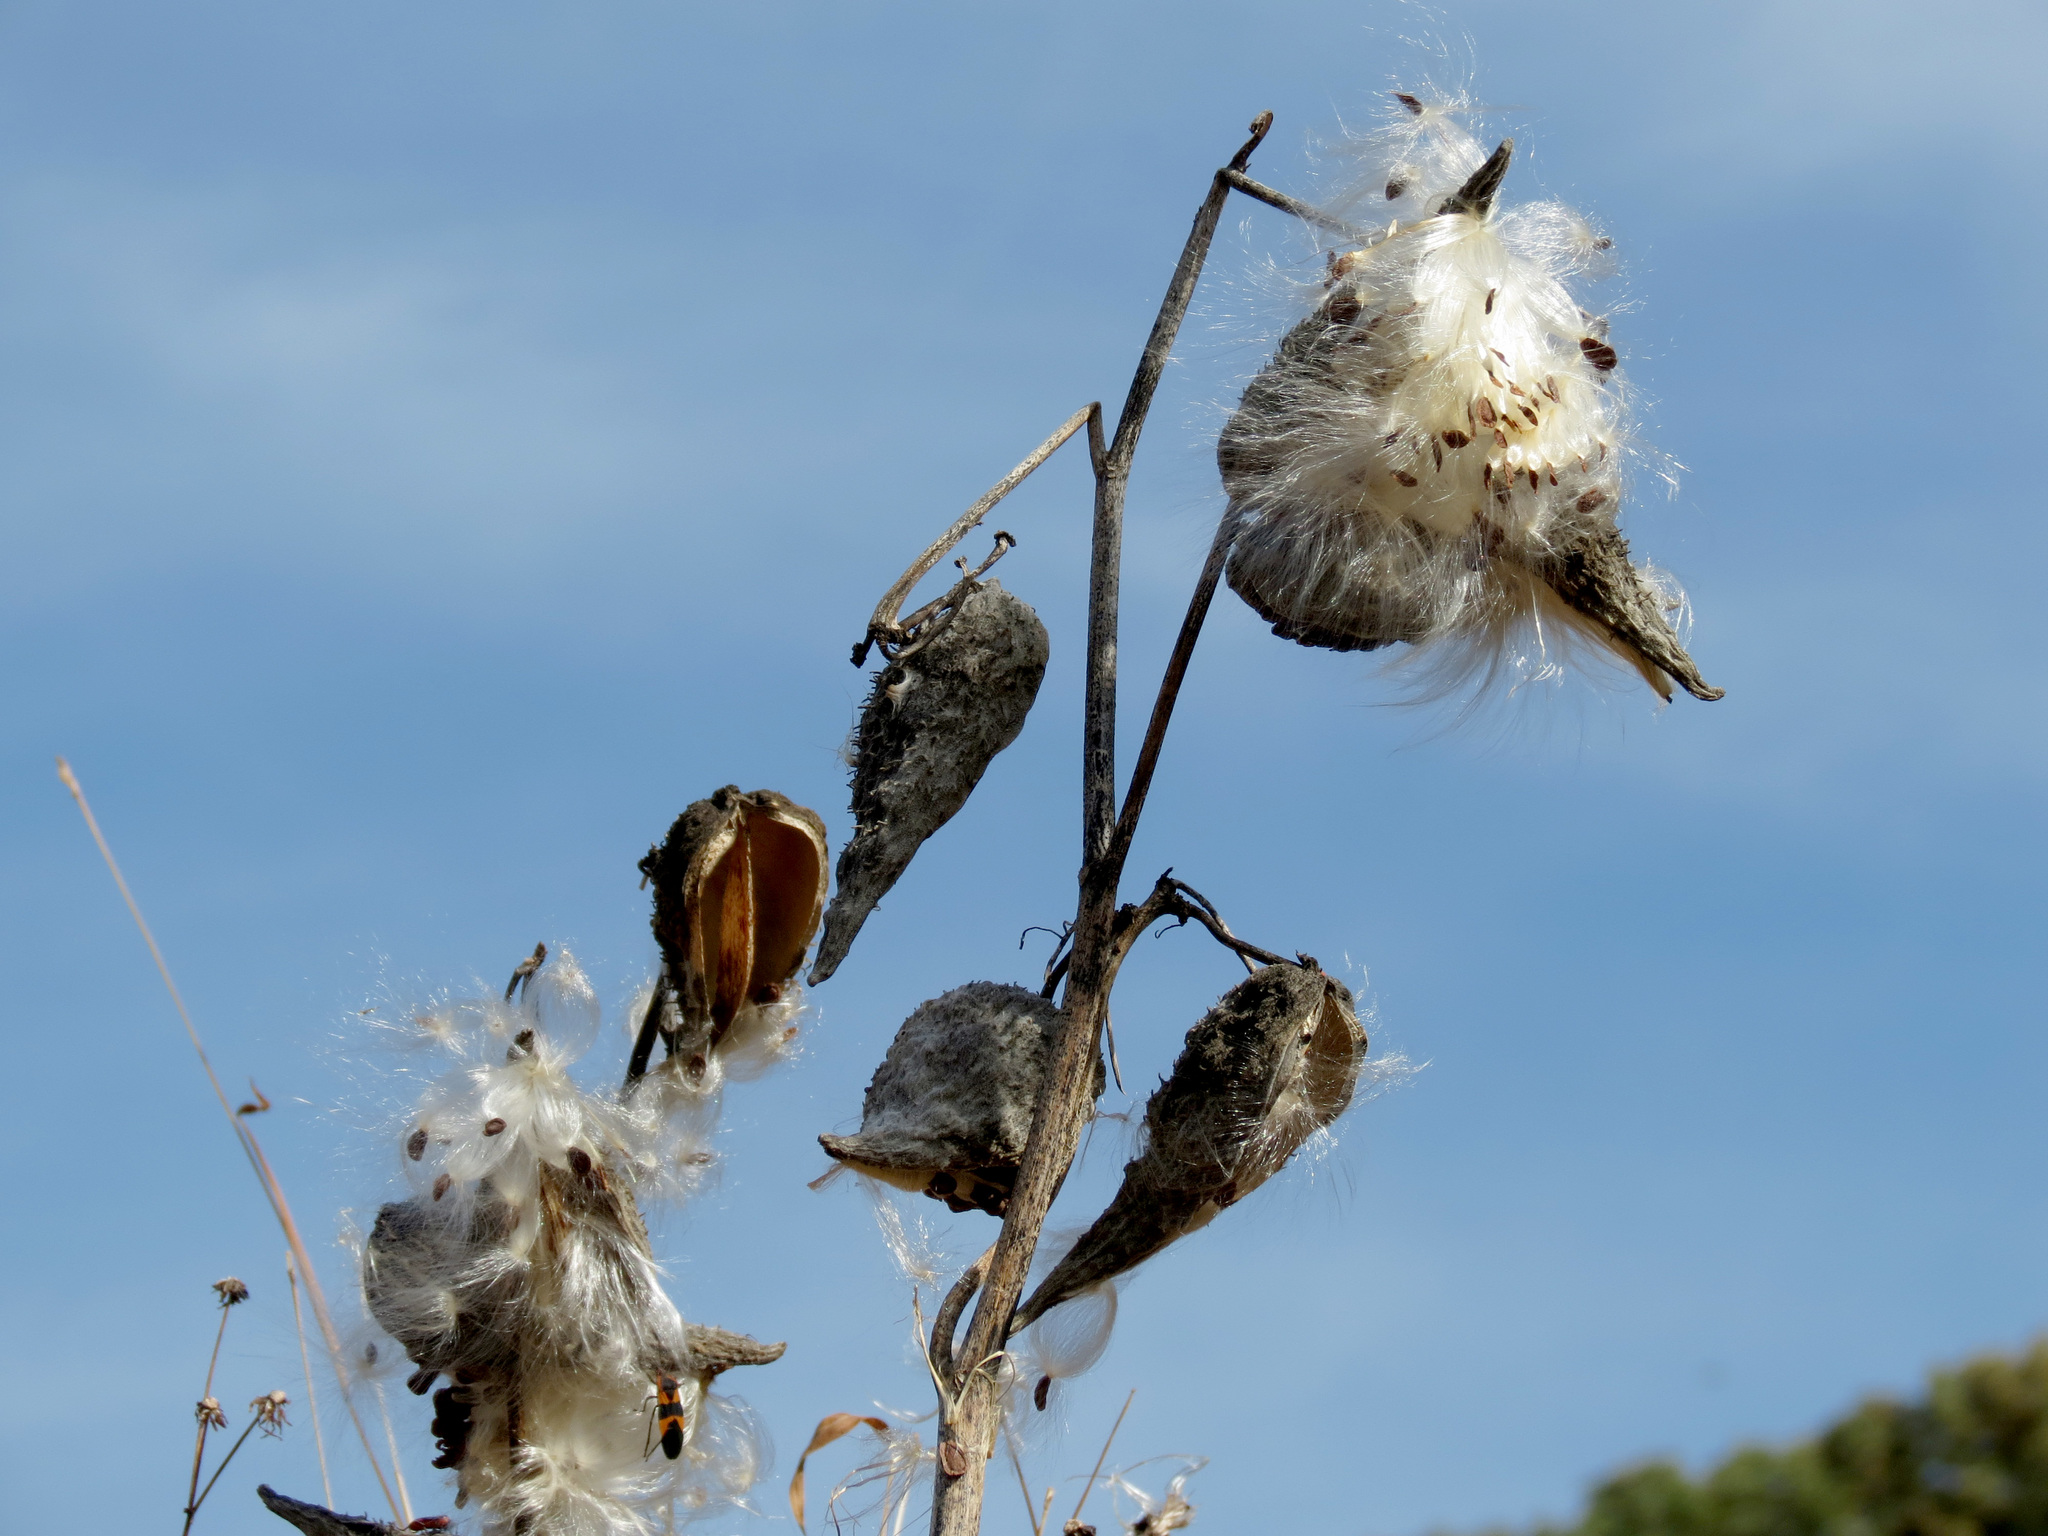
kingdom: Plantae
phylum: Tracheophyta
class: Magnoliopsida
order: Gentianales
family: Apocynaceae
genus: Asclepias
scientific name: Asclepias syriaca
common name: Common milkweed
